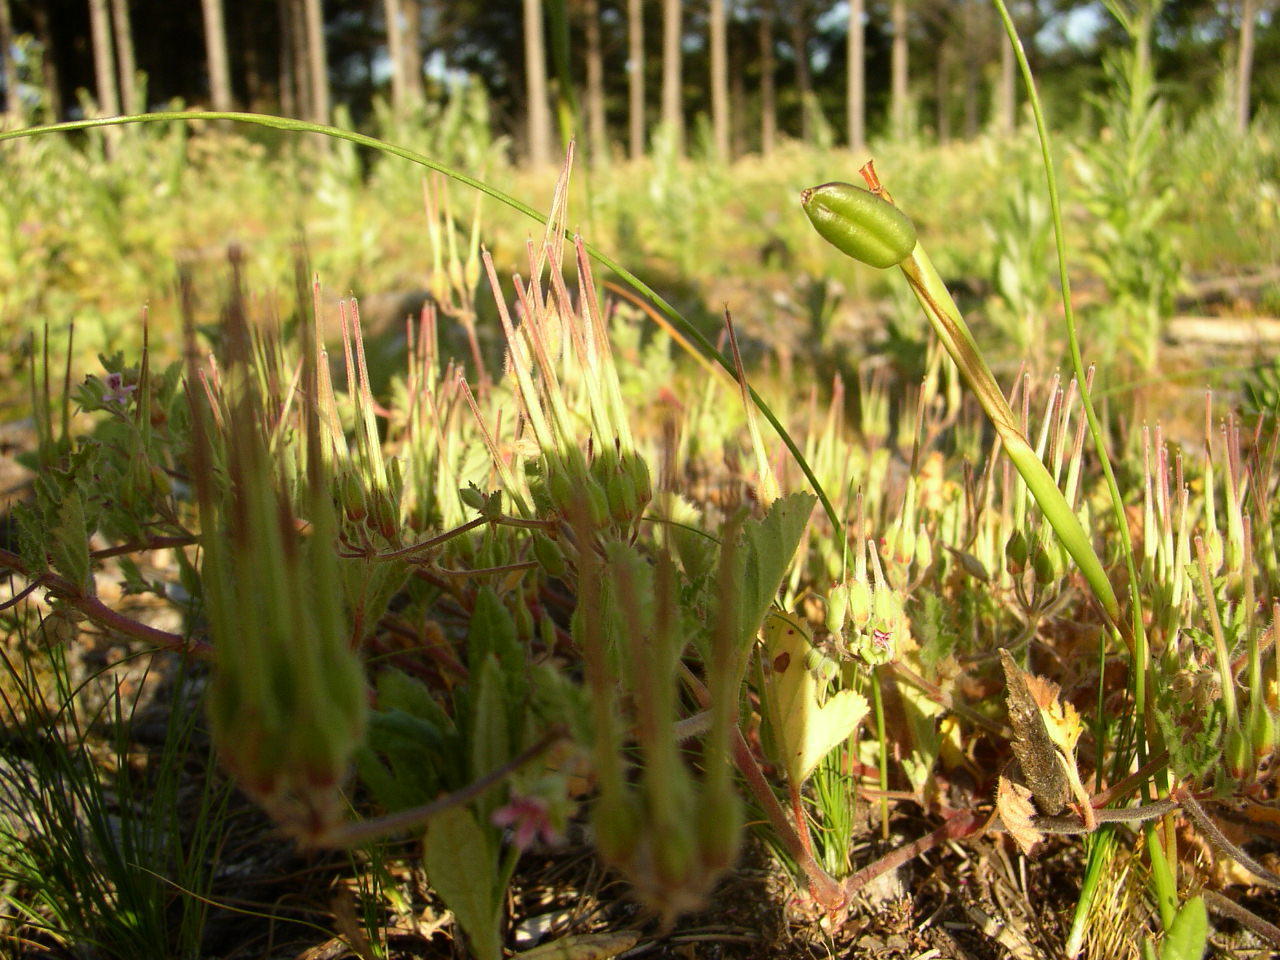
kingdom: Plantae
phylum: Tracheophyta
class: Magnoliopsida
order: Geraniales
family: Geraniaceae
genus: Pelargonium
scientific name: Pelargonium althaeoides
